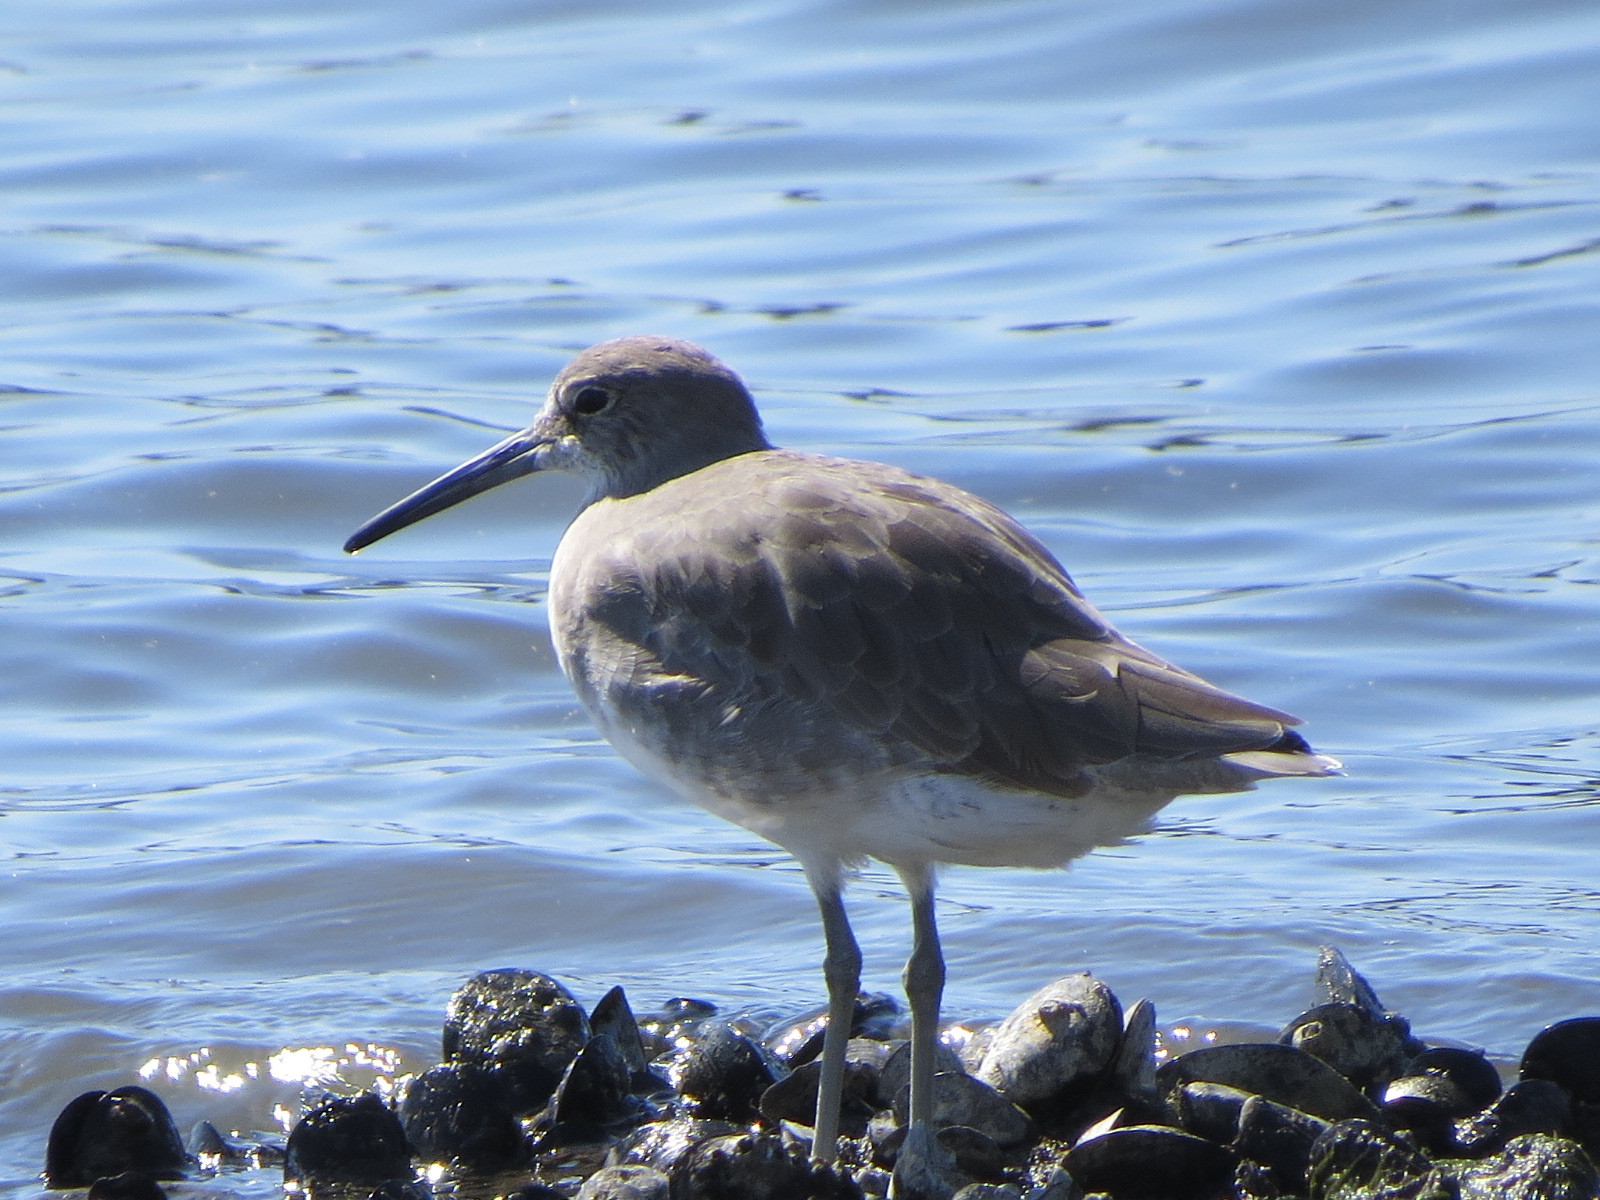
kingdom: Animalia
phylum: Chordata
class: Aves
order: Charadriiformes
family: Scolopacidae
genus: Tringa
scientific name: Tringa semipalmata
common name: Willet
